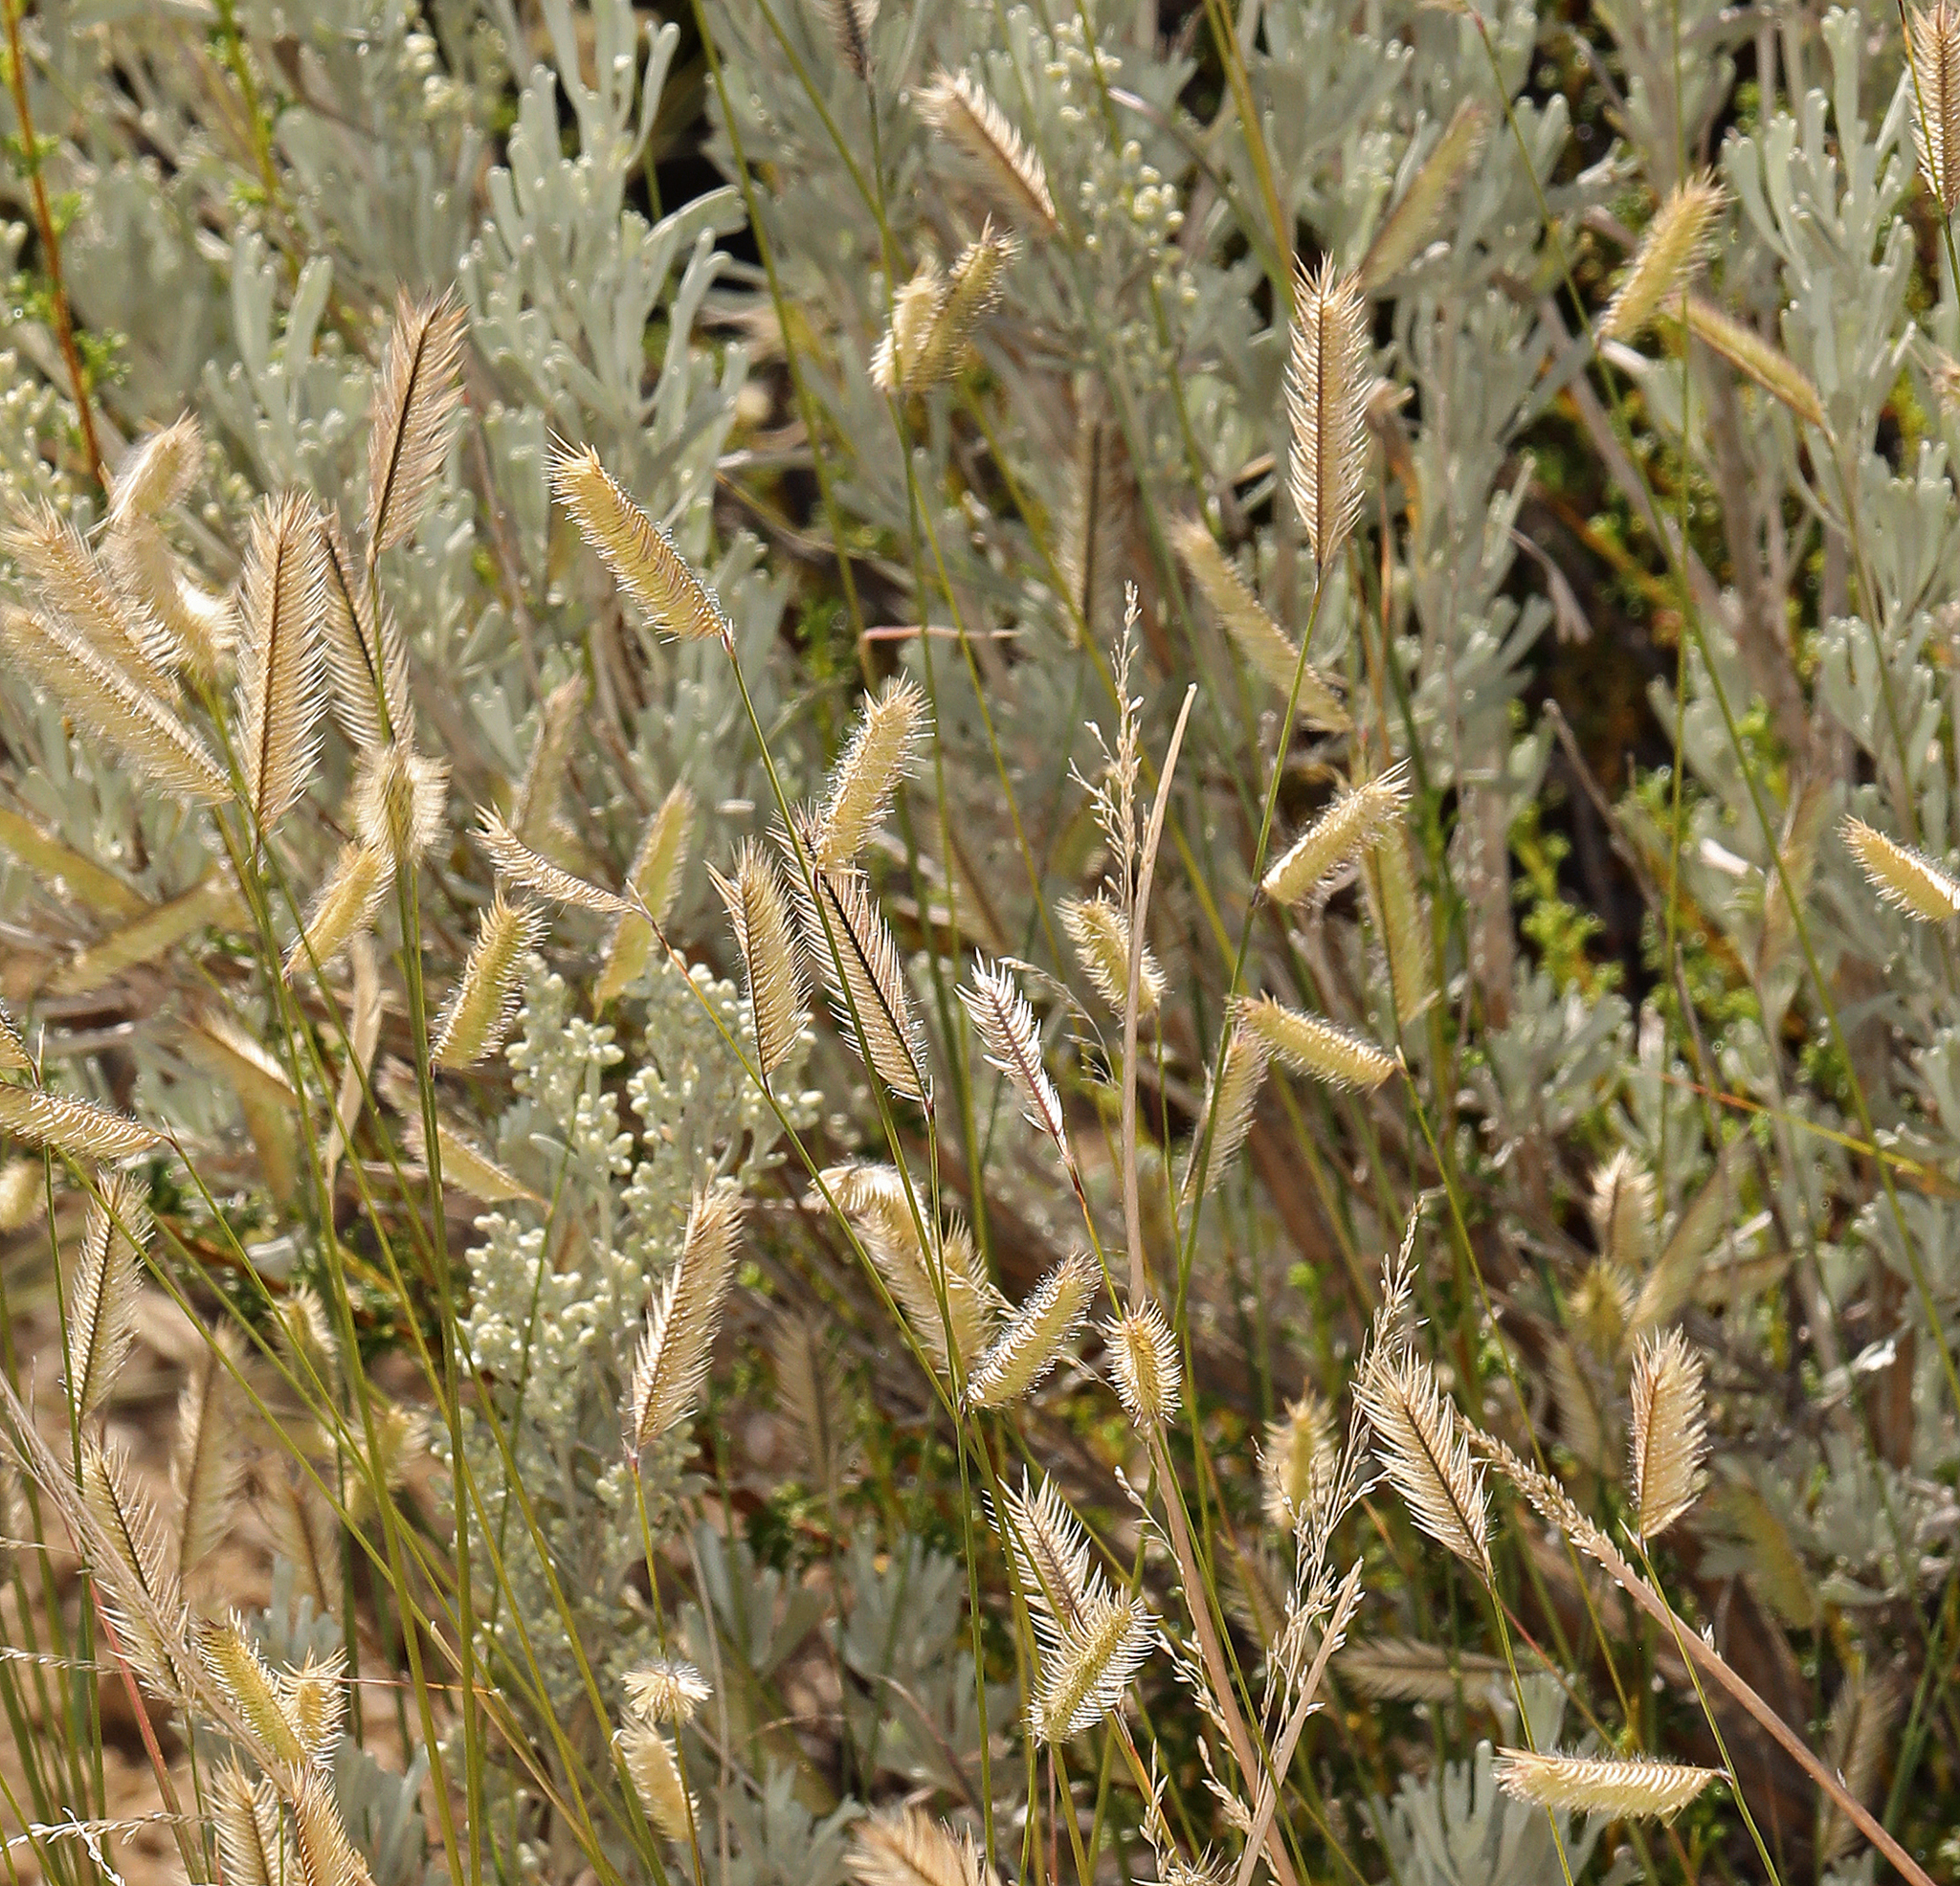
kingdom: Plantae
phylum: Tracheophyta
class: Liliopsida
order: Poales
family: Poaceae
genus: Bouteloua
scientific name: Bouteloua gracilis
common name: Blue grama
